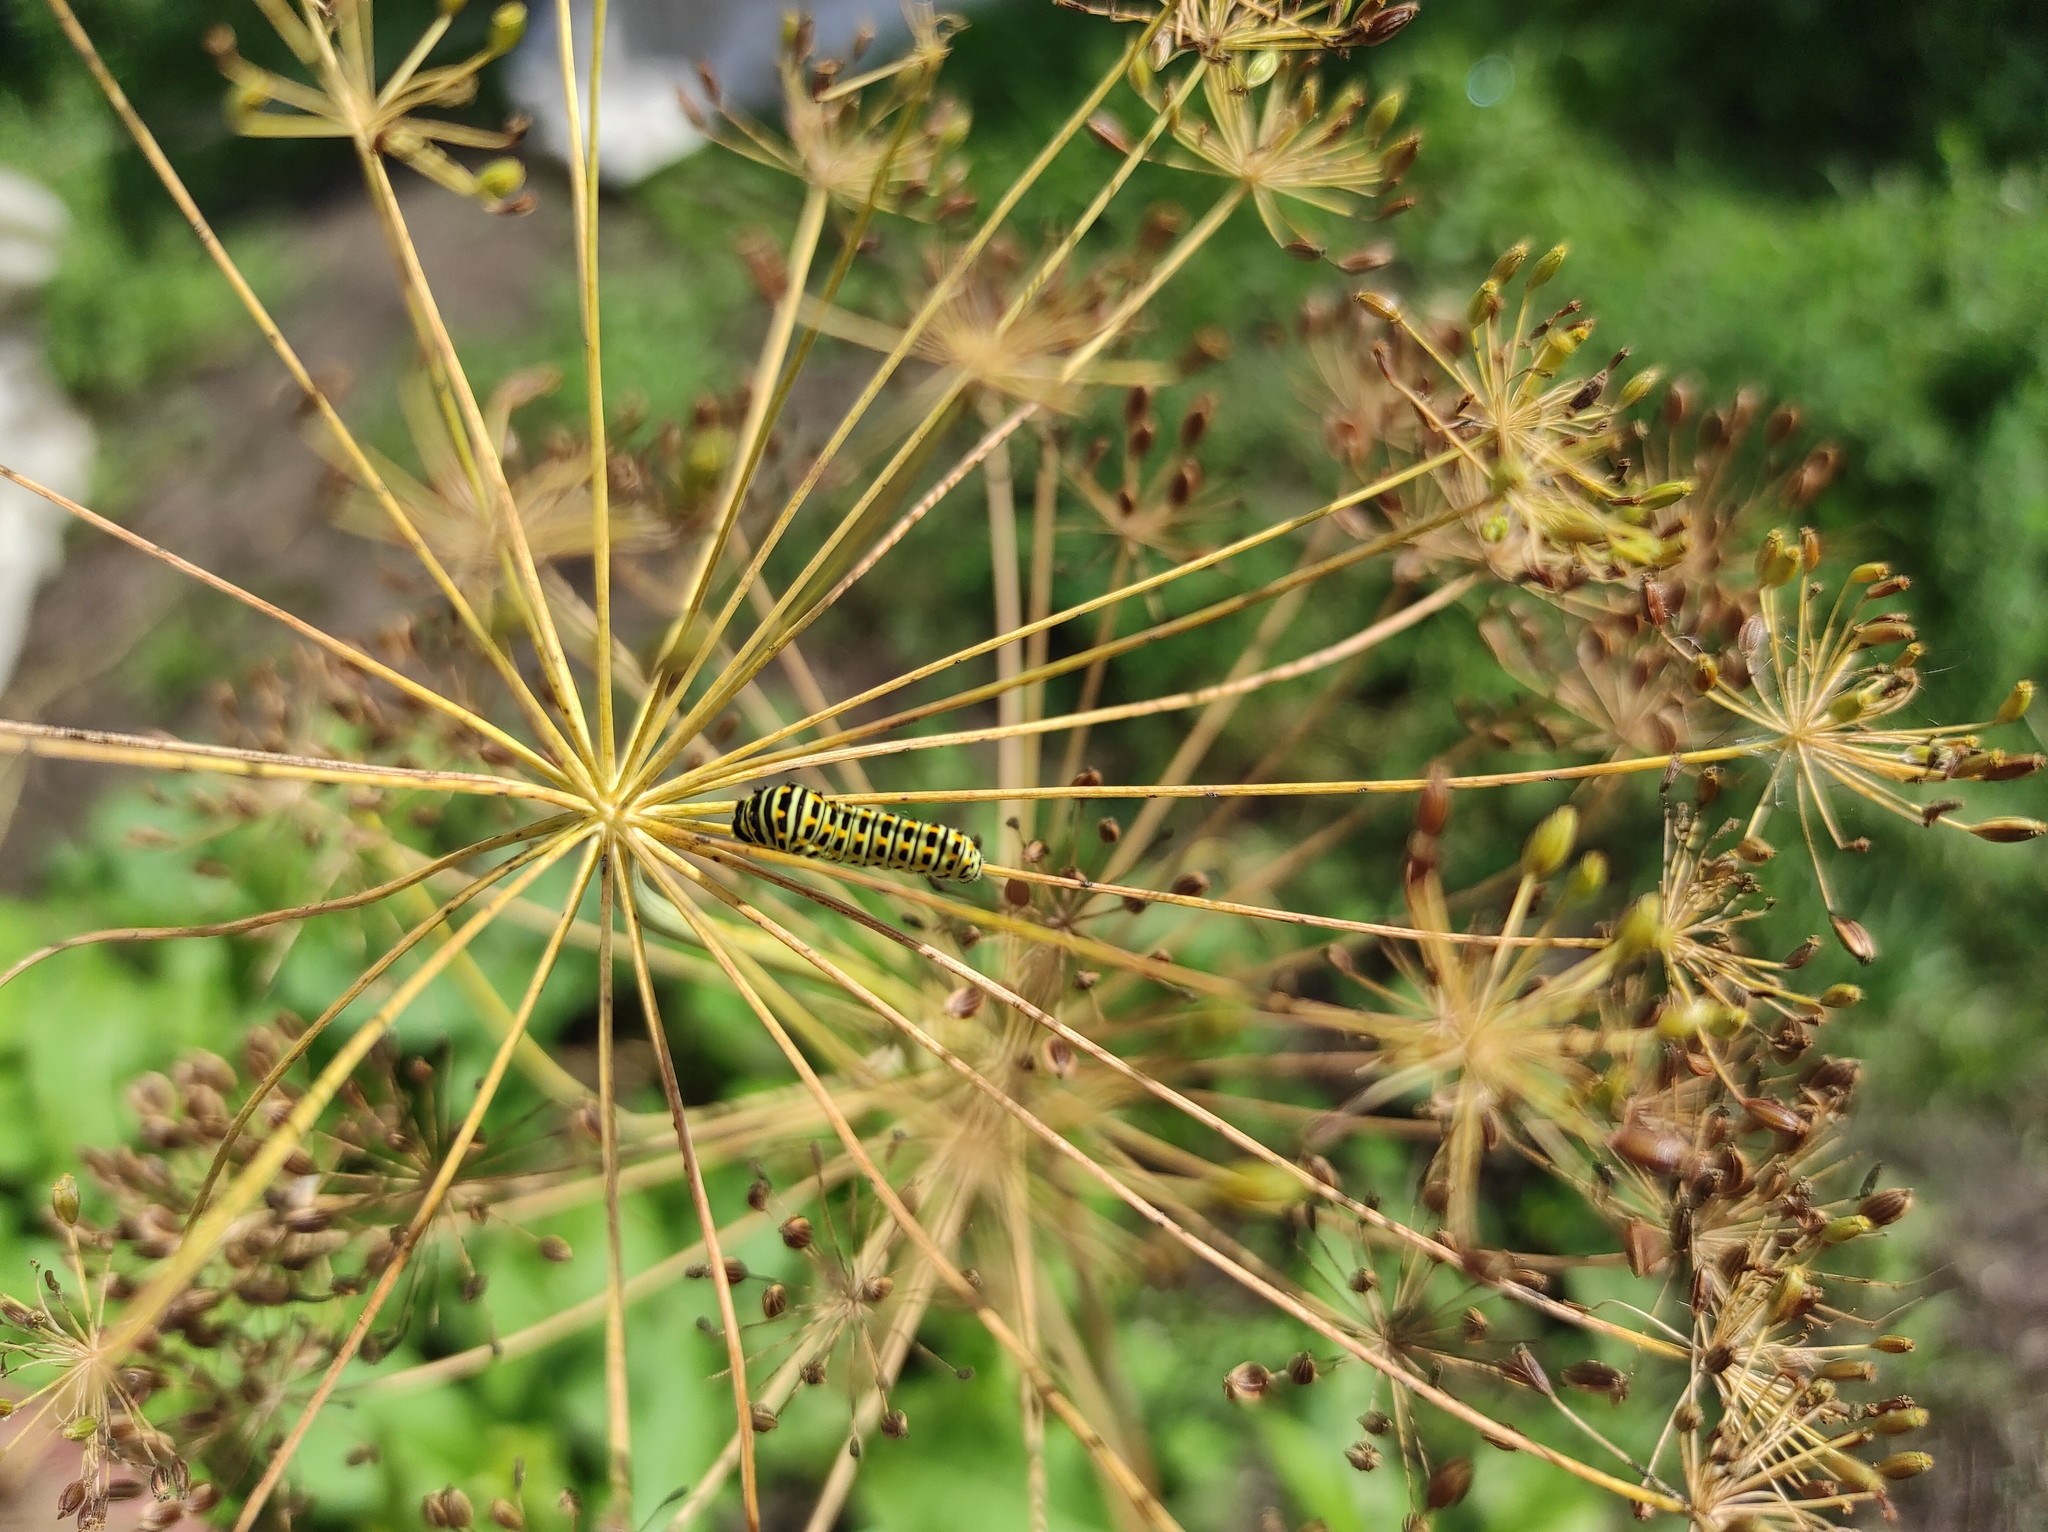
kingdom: Animalia
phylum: Arthropoda
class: Insecta
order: Lepidoptera
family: Papilionidae
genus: Papilio
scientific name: Papilio machaon
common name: Swallowtail
